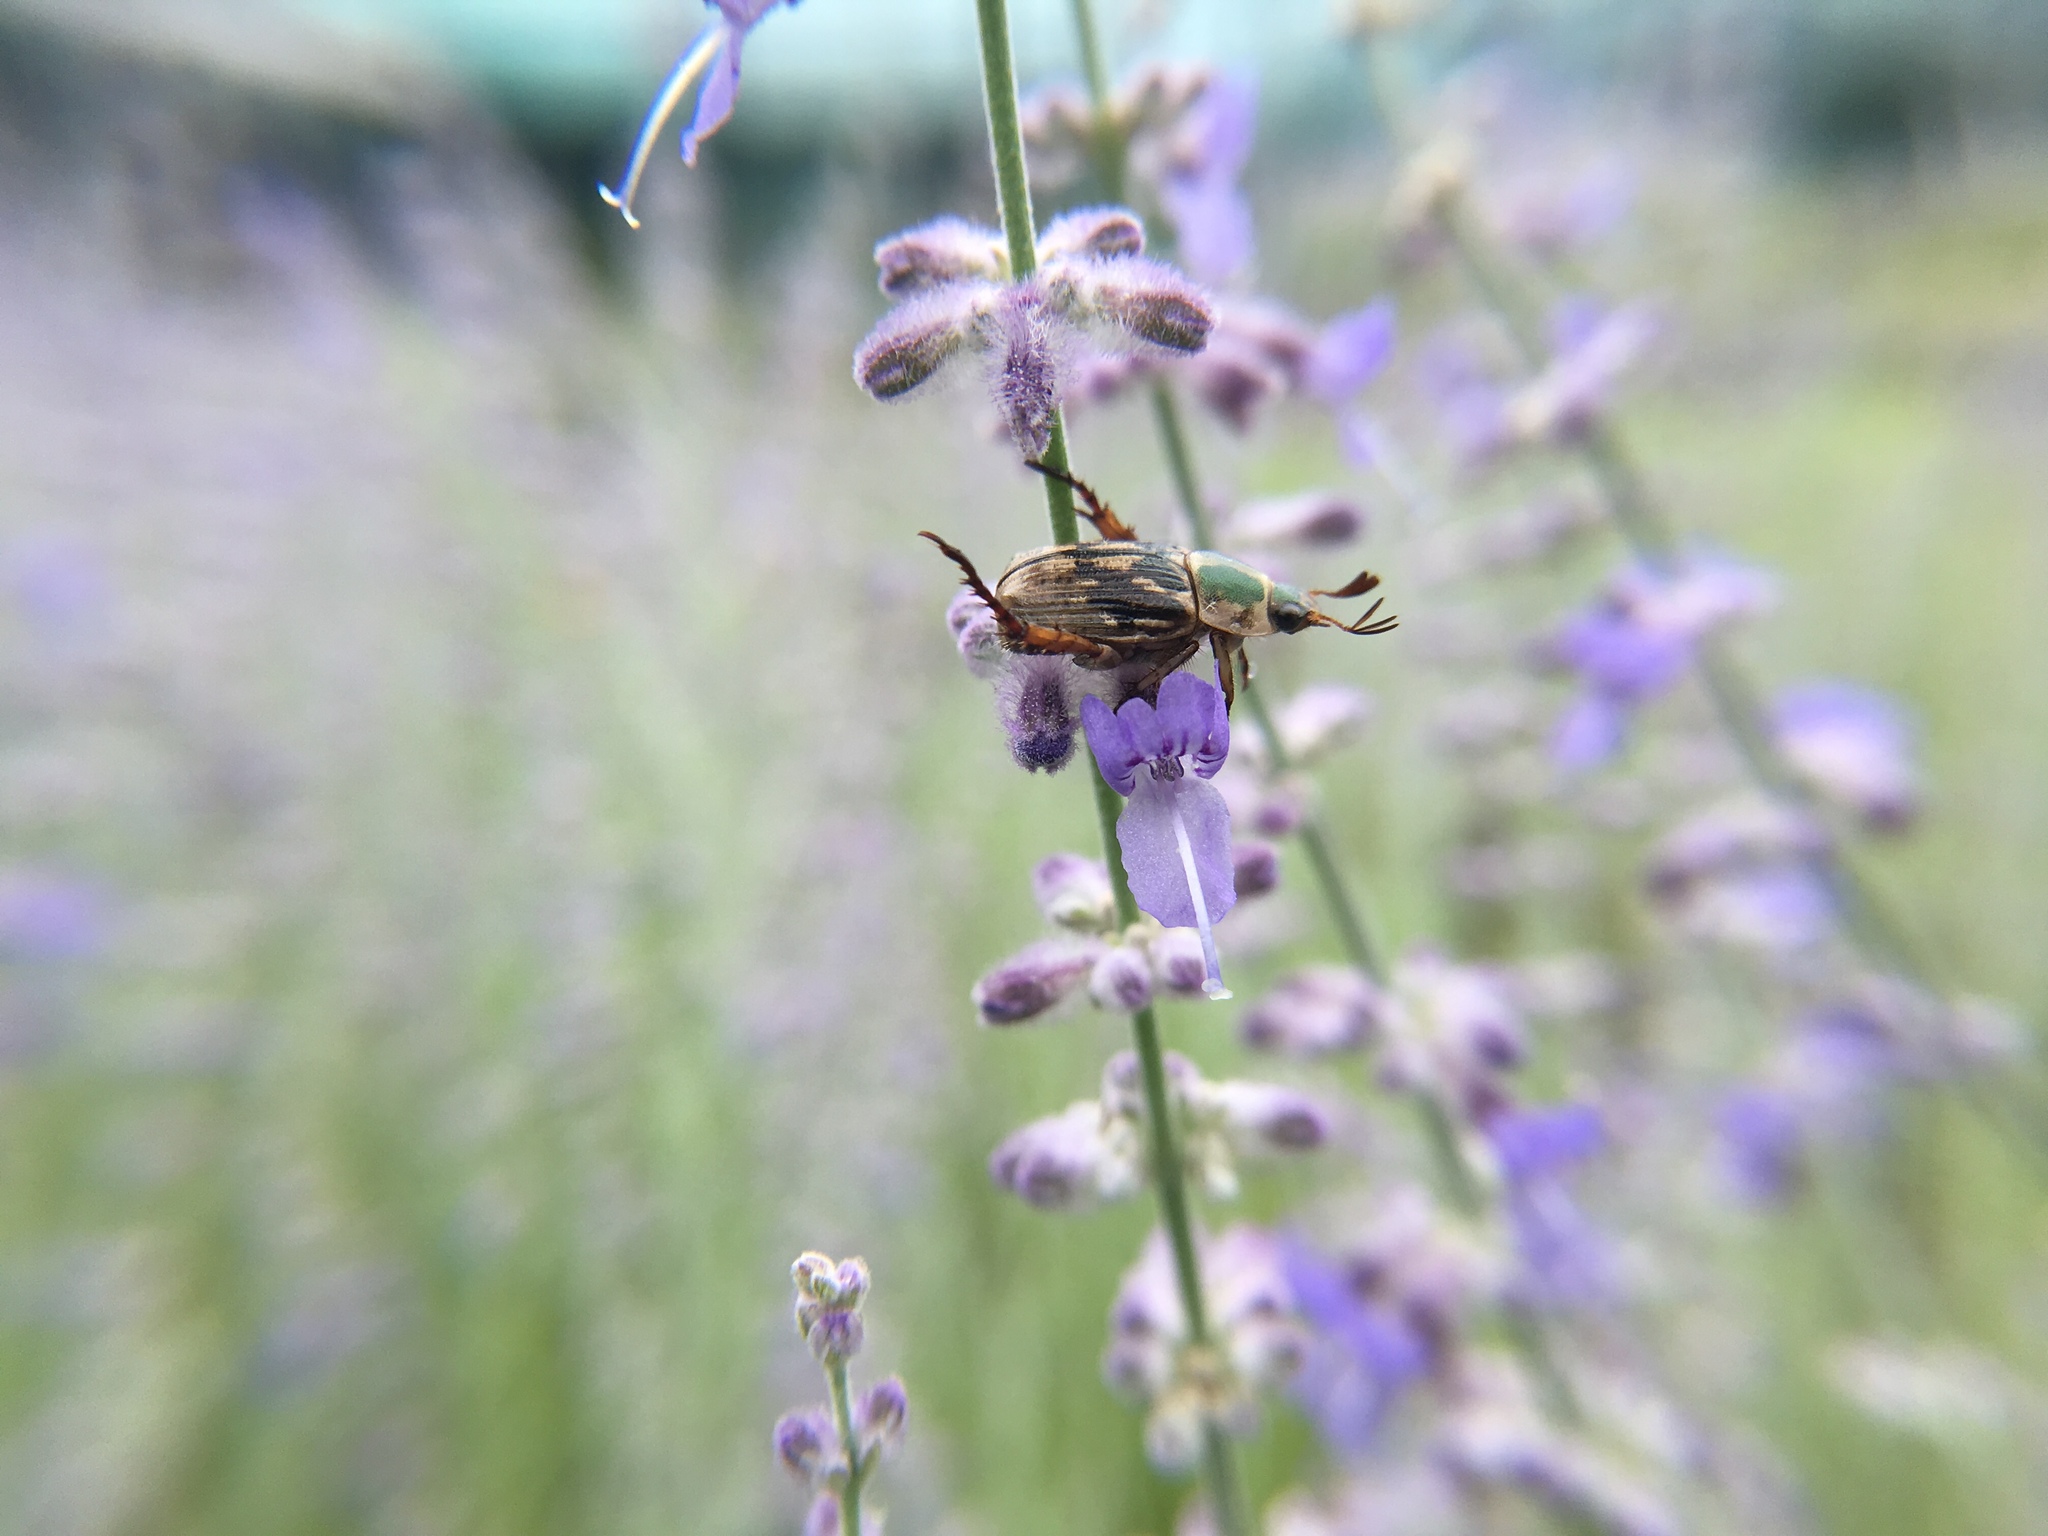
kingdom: Animalia
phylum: Arthropoda
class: Insecta
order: Coleoptera
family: Scarabaeidae
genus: Exomala
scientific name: Exomala orientalis
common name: Oriental beetle
